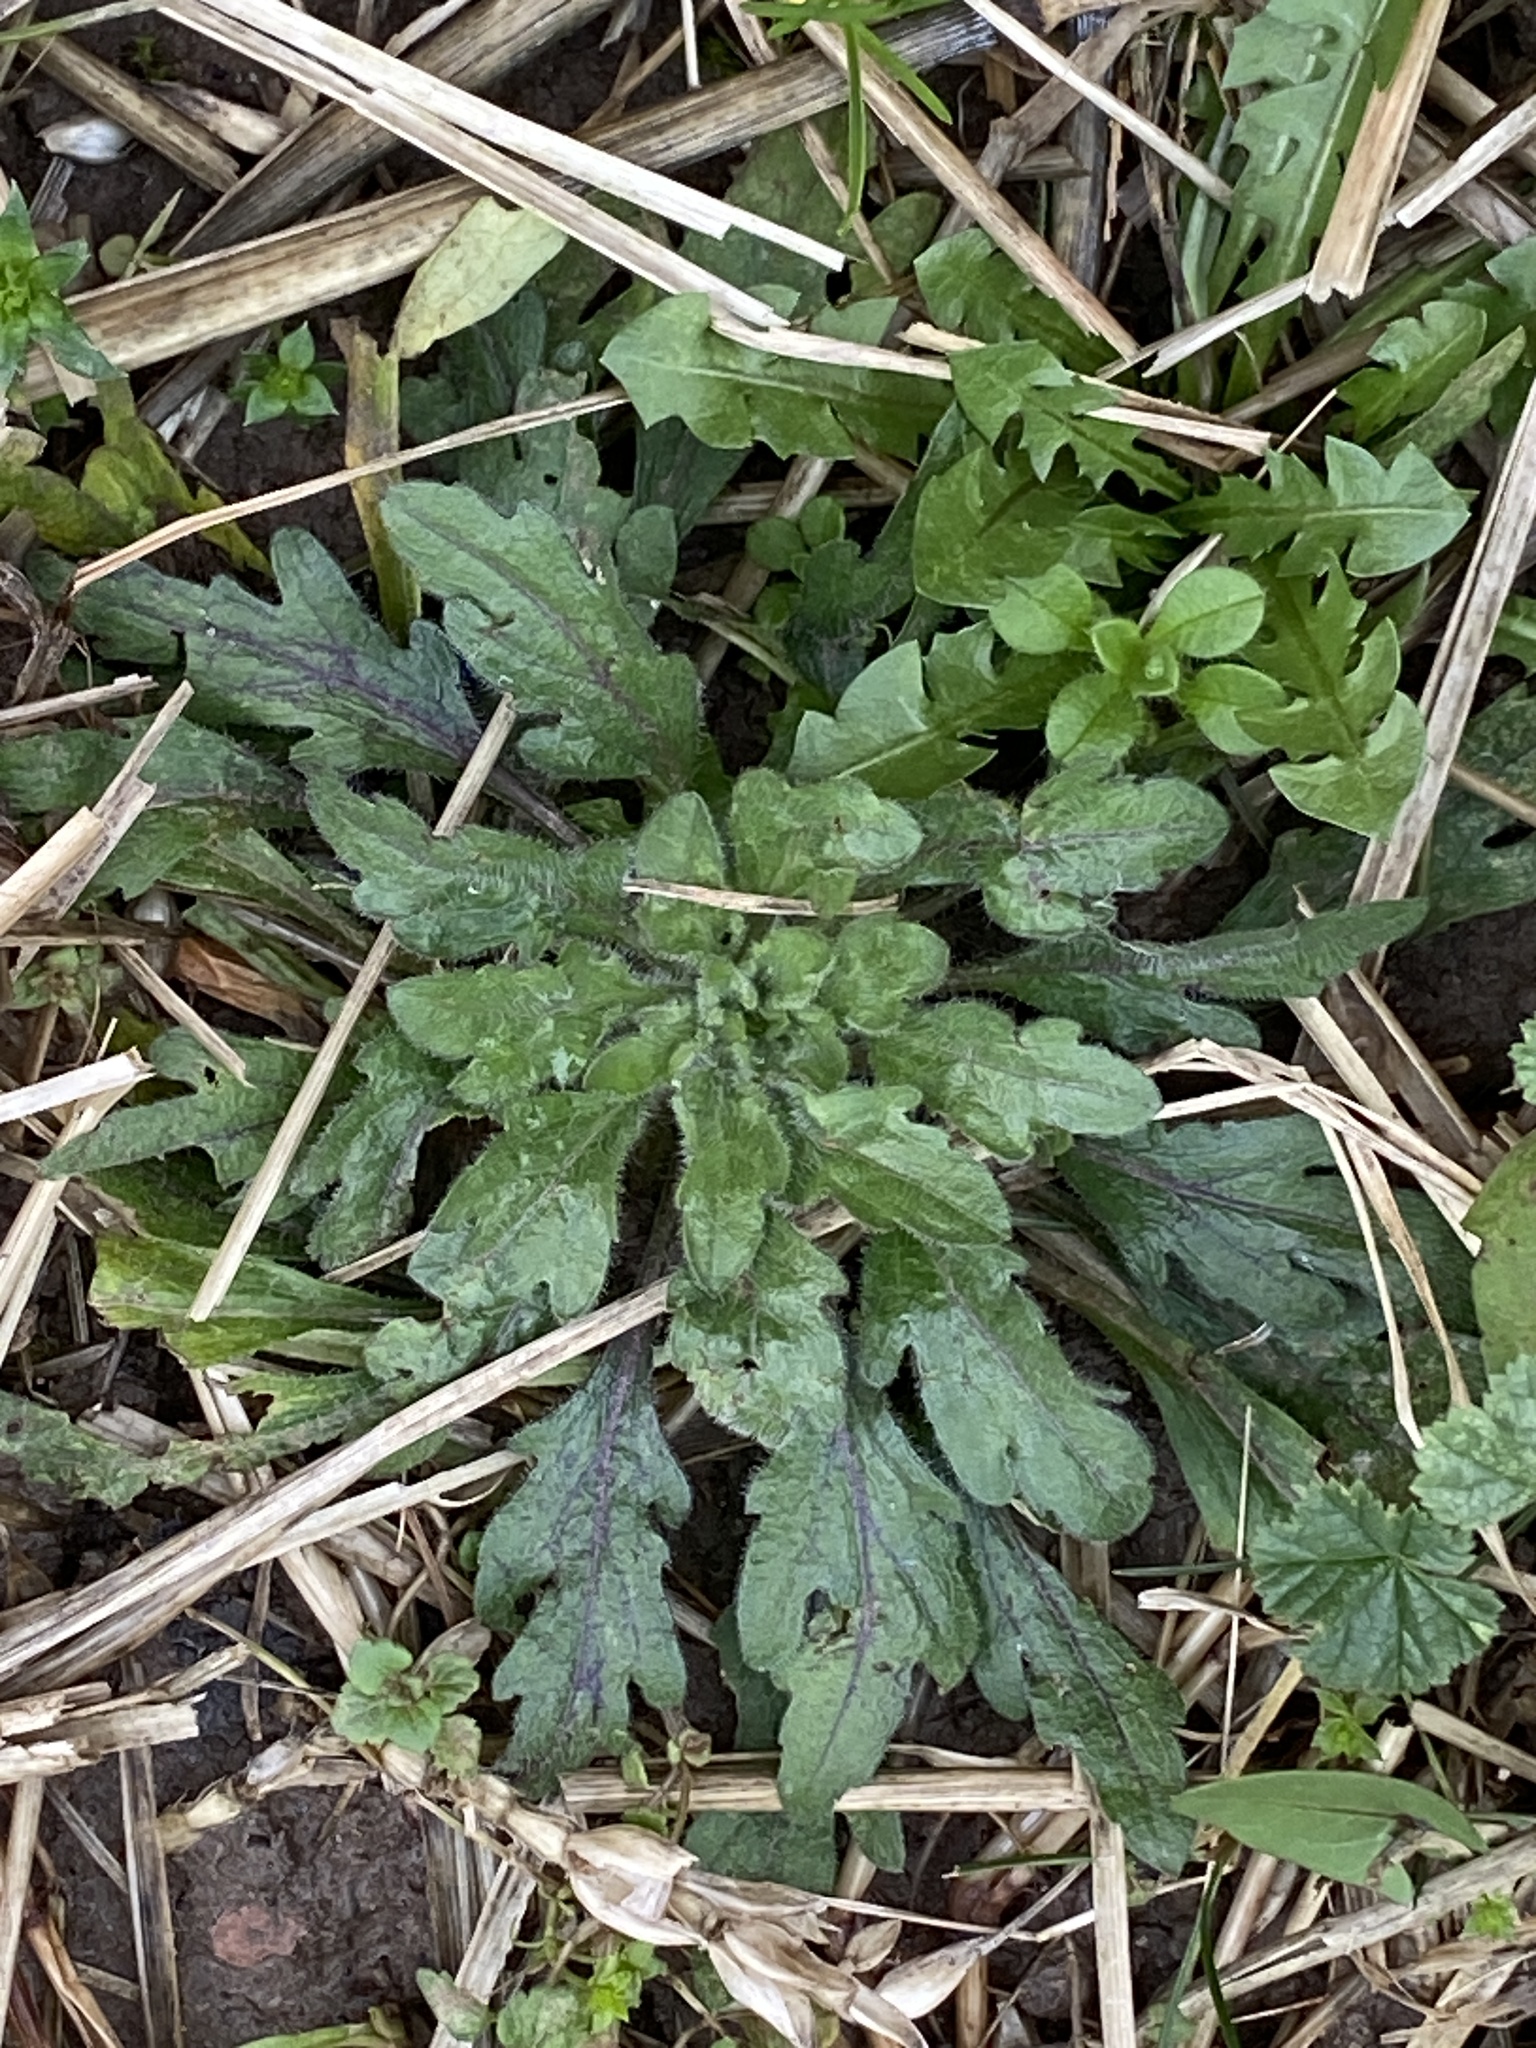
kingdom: Plantae
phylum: Tracheophyta
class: Magnoliopsida
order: Asterales
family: Asteraceae
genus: Erigeron
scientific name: Erigeron canadensis
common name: Canadian fleabane
